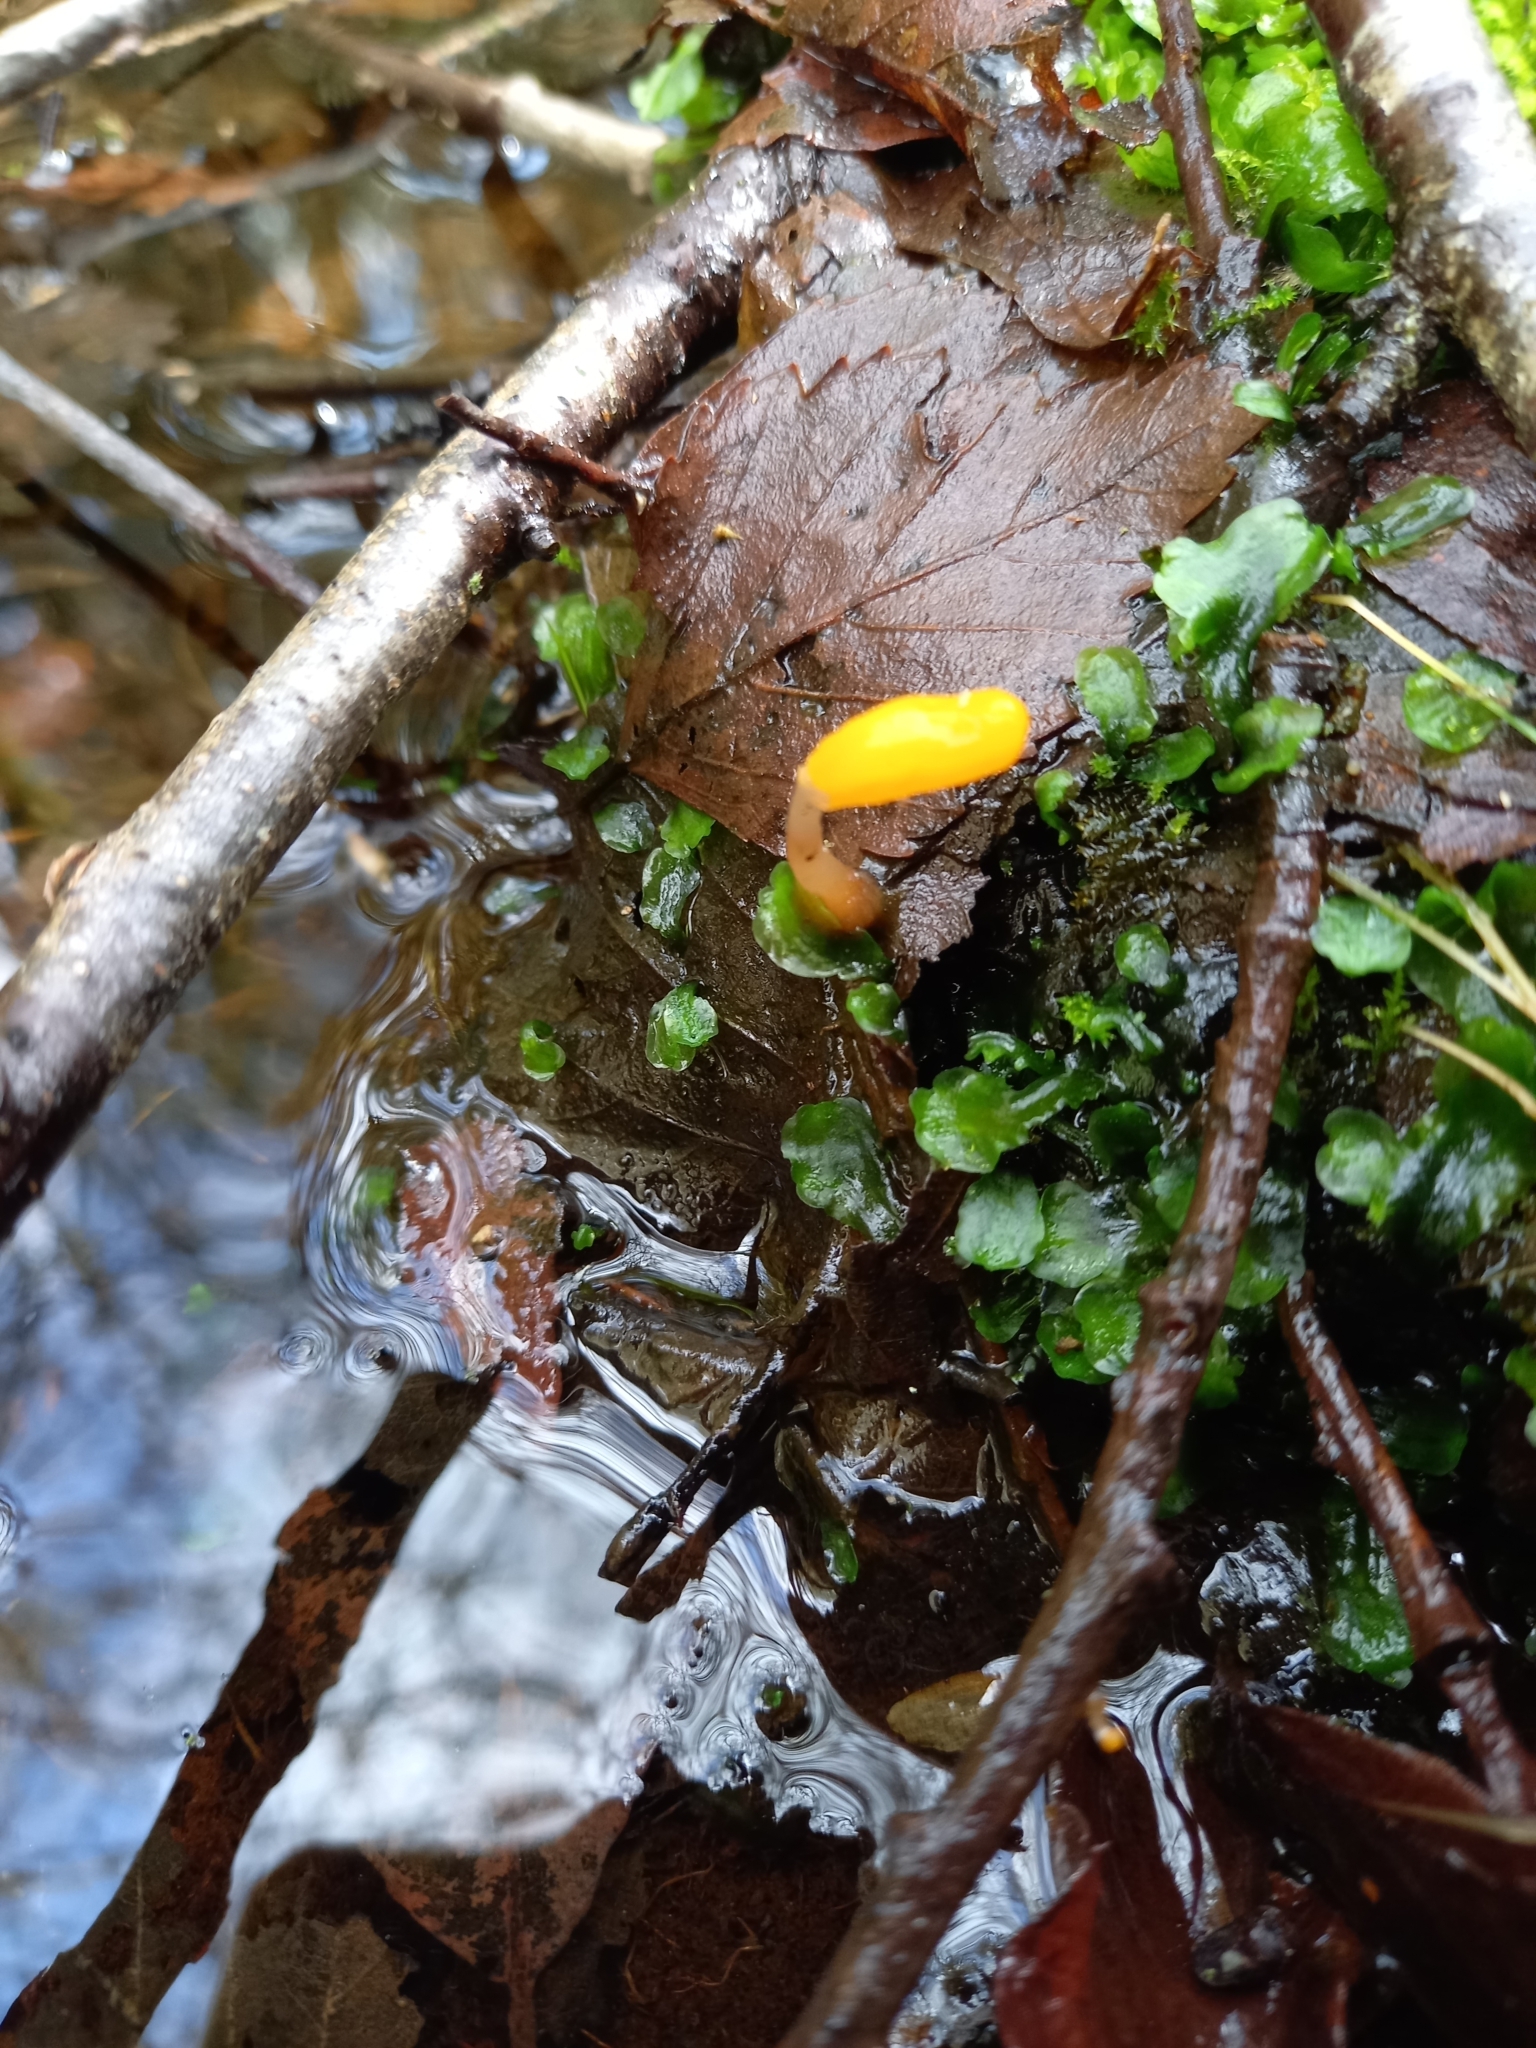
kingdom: Fungi
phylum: Ascomycota
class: Leotiomycetes
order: Helotiales
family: Cenangiaceae
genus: Mitrula
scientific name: Mitrula paludosa
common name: Bog beacon
